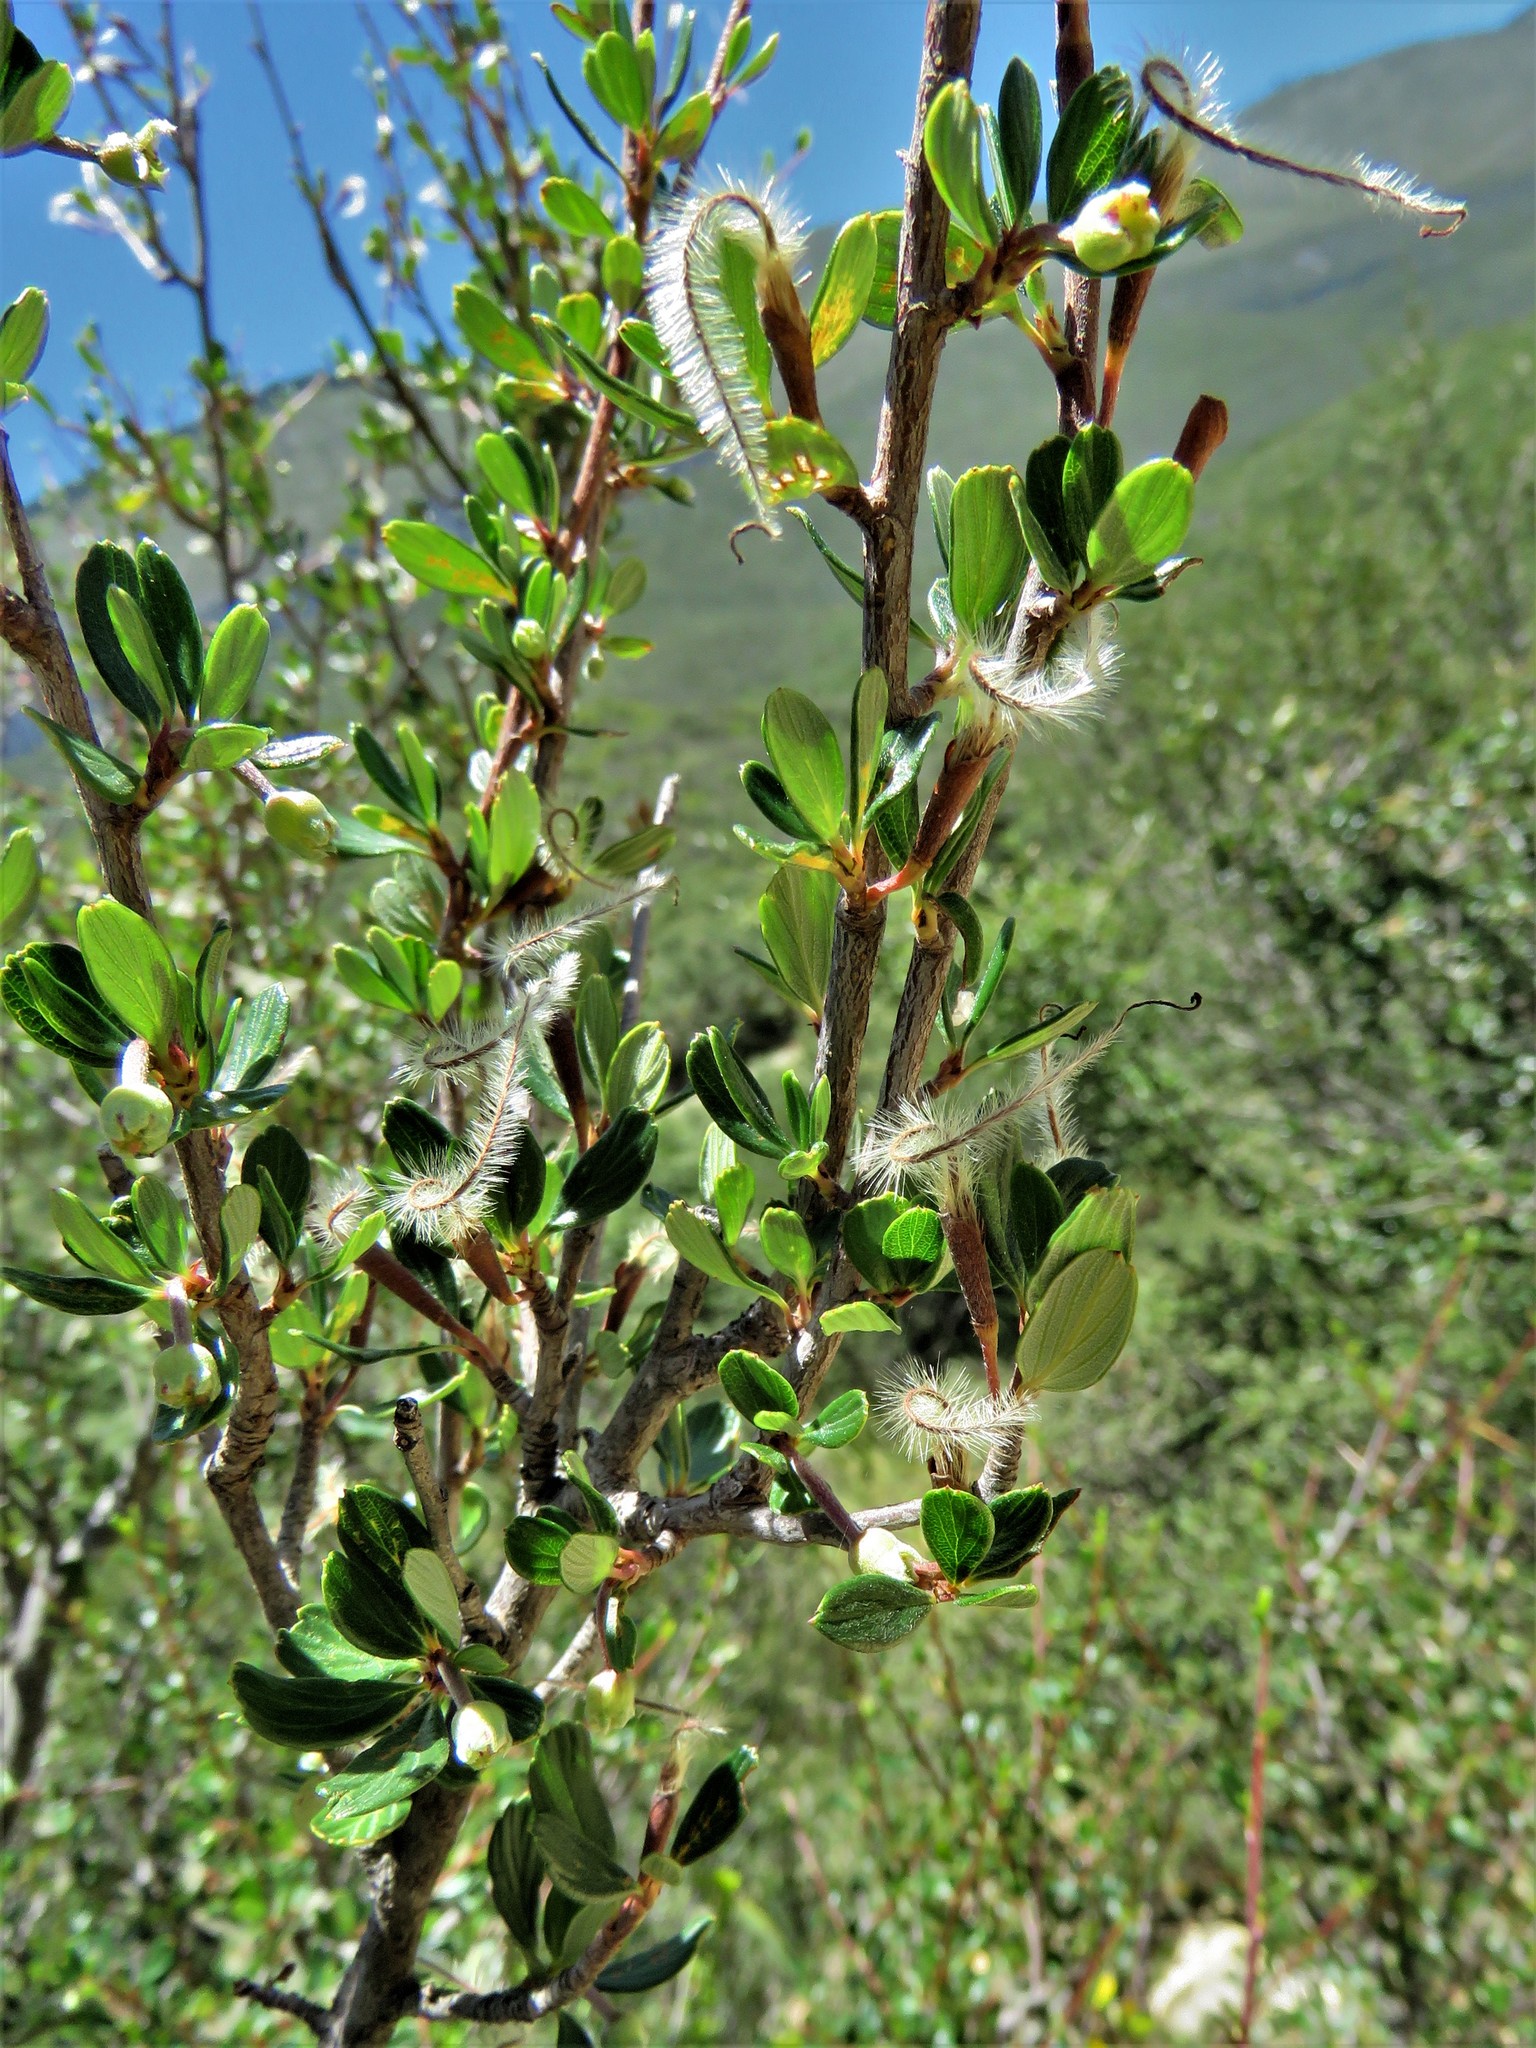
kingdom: Plantae
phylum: Tracheophyta
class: Magnoliopsida
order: Rosales
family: Rosaceae
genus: Cercocarpus
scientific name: Cercocarpus montanus
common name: Alder-leaf cercocarpus
